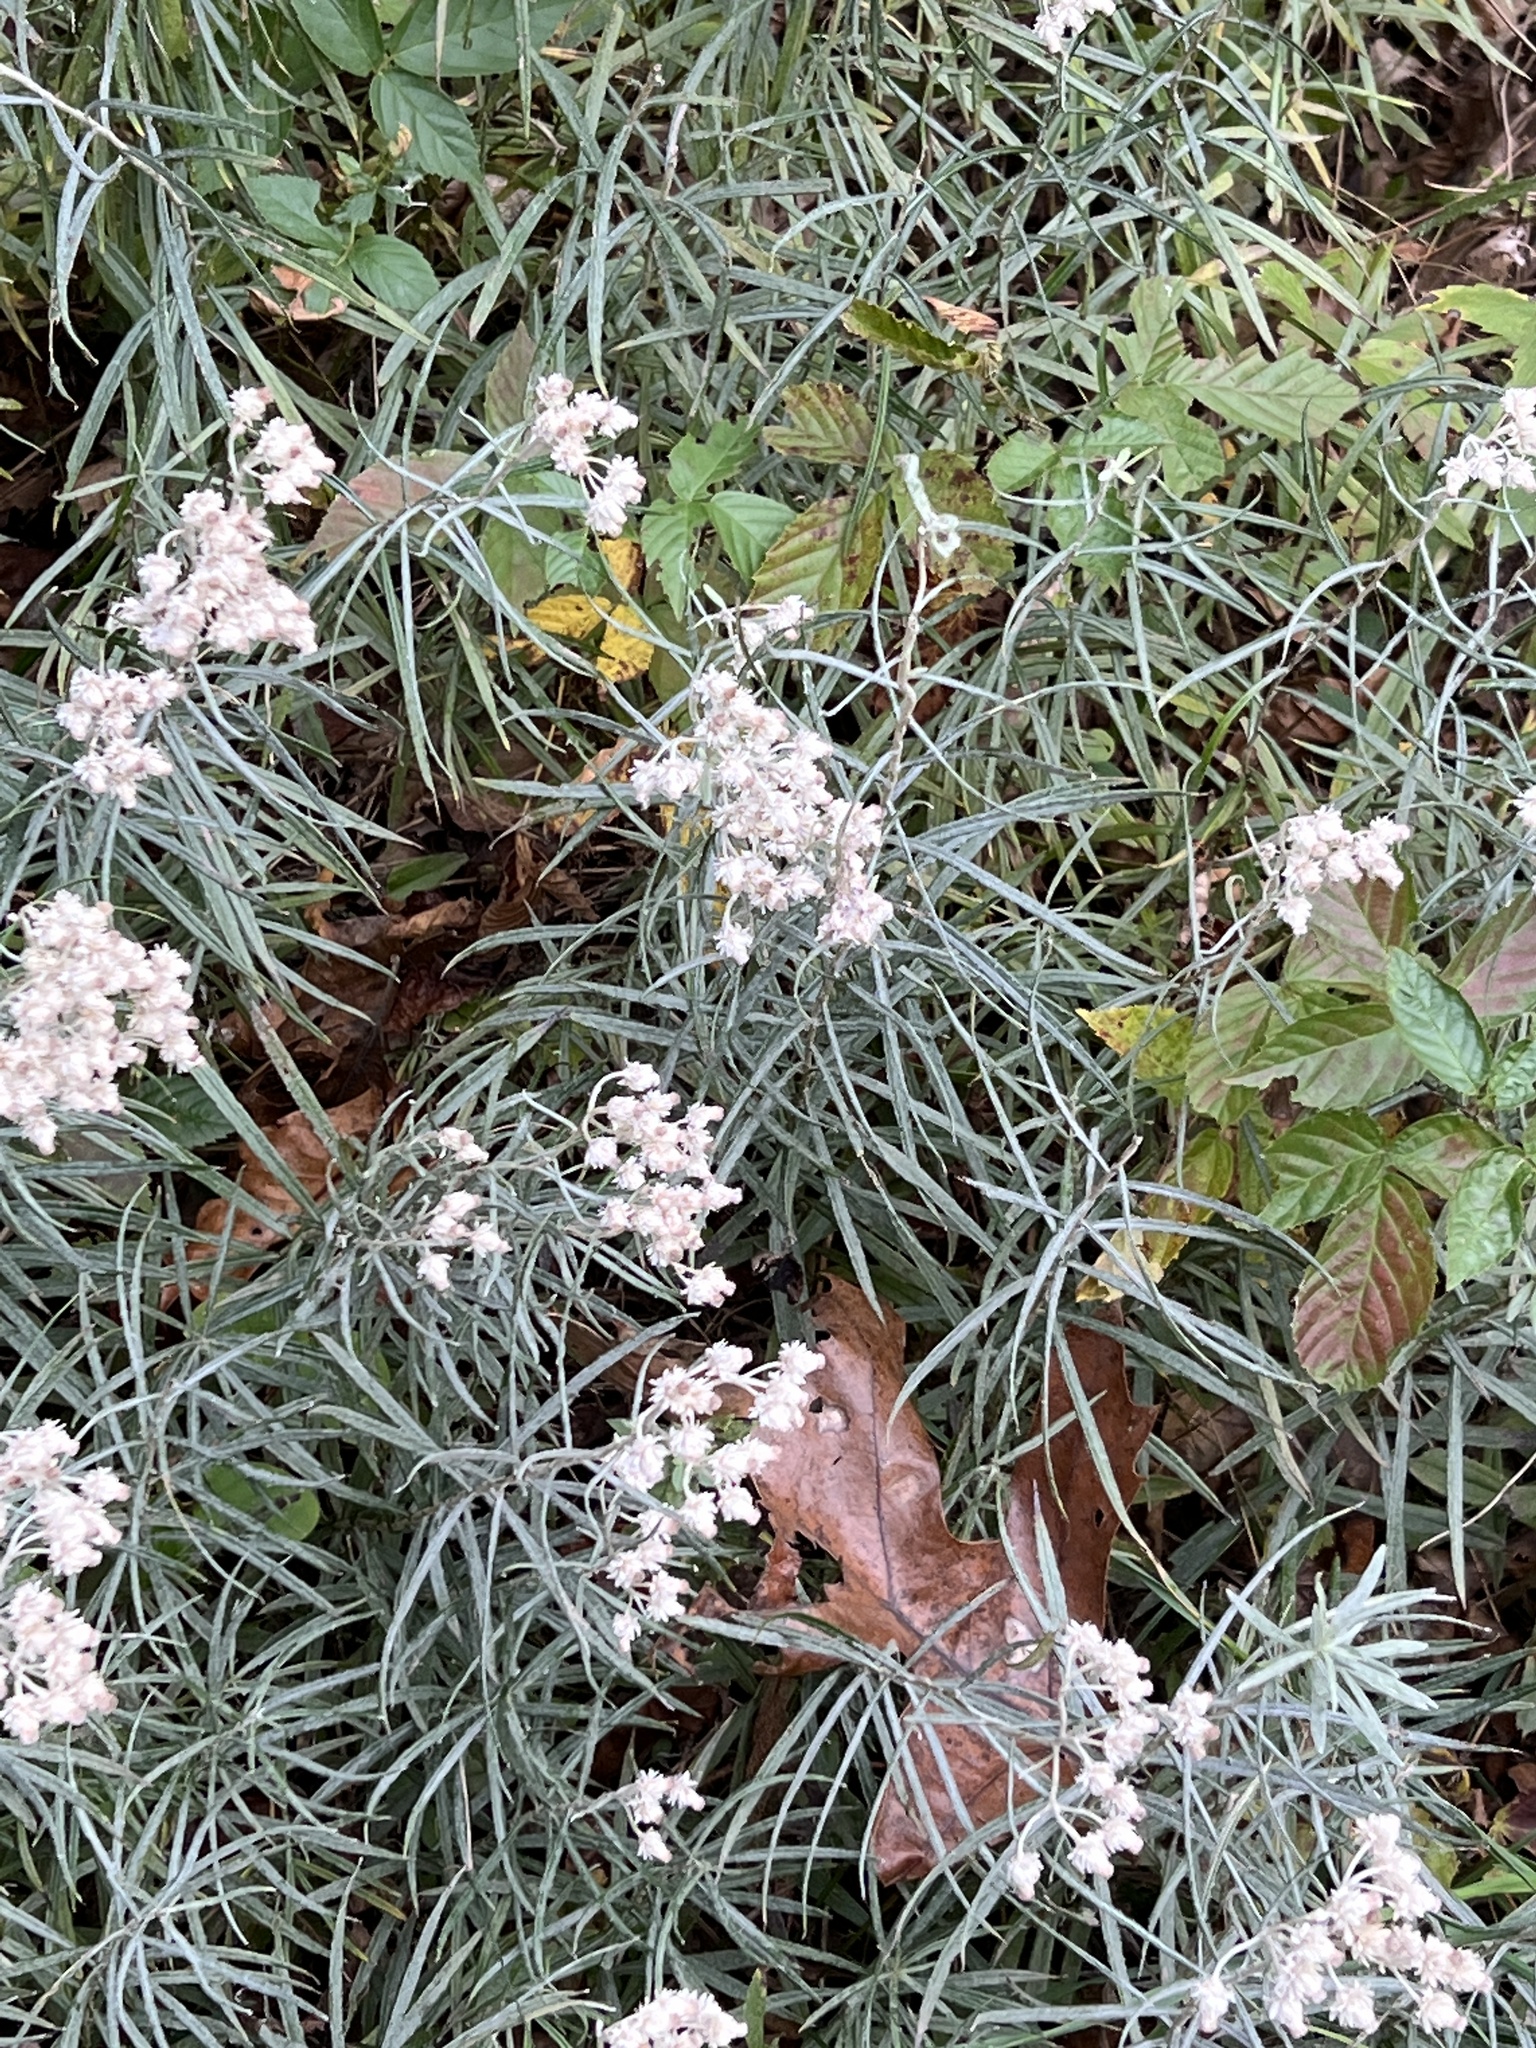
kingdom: Plantae
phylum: Tracheophyta
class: Magnoliopsida
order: Asterales
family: Asteraceae
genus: Anaphalis
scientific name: Anaphalis margaritacea
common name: Pearly everlasting
